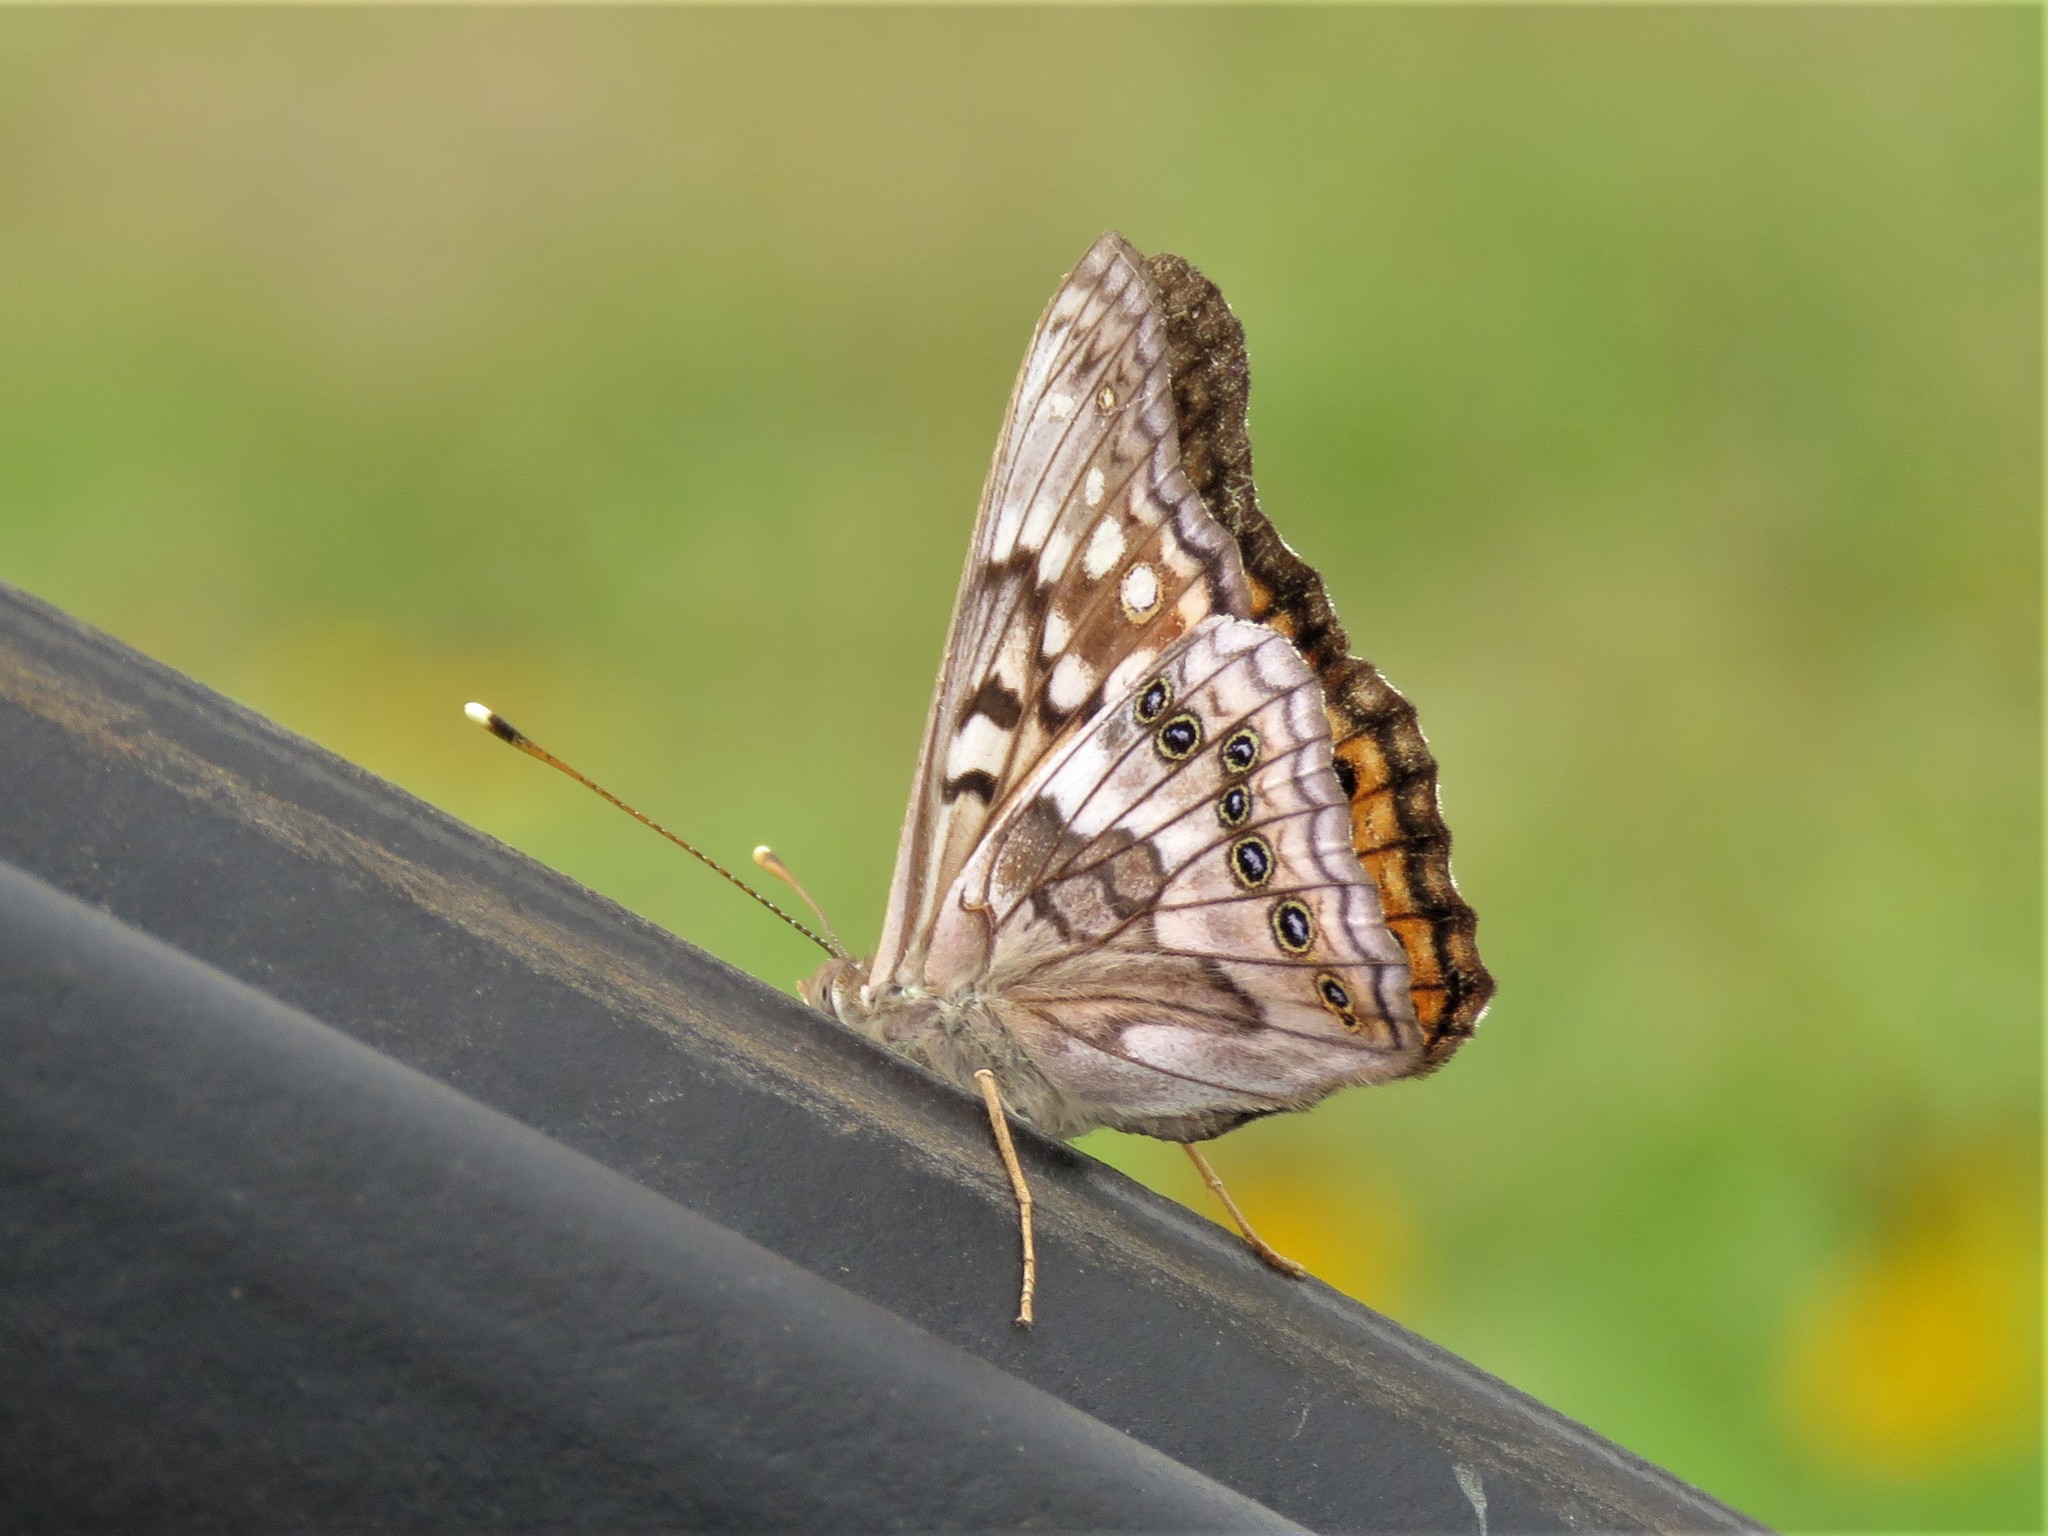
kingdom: Animalia
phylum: Arthropoda
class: Insecta
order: Lepidoptera
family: Nymphalidae
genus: Asterocampa
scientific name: Asterocampa clyton
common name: Tawny emperor
